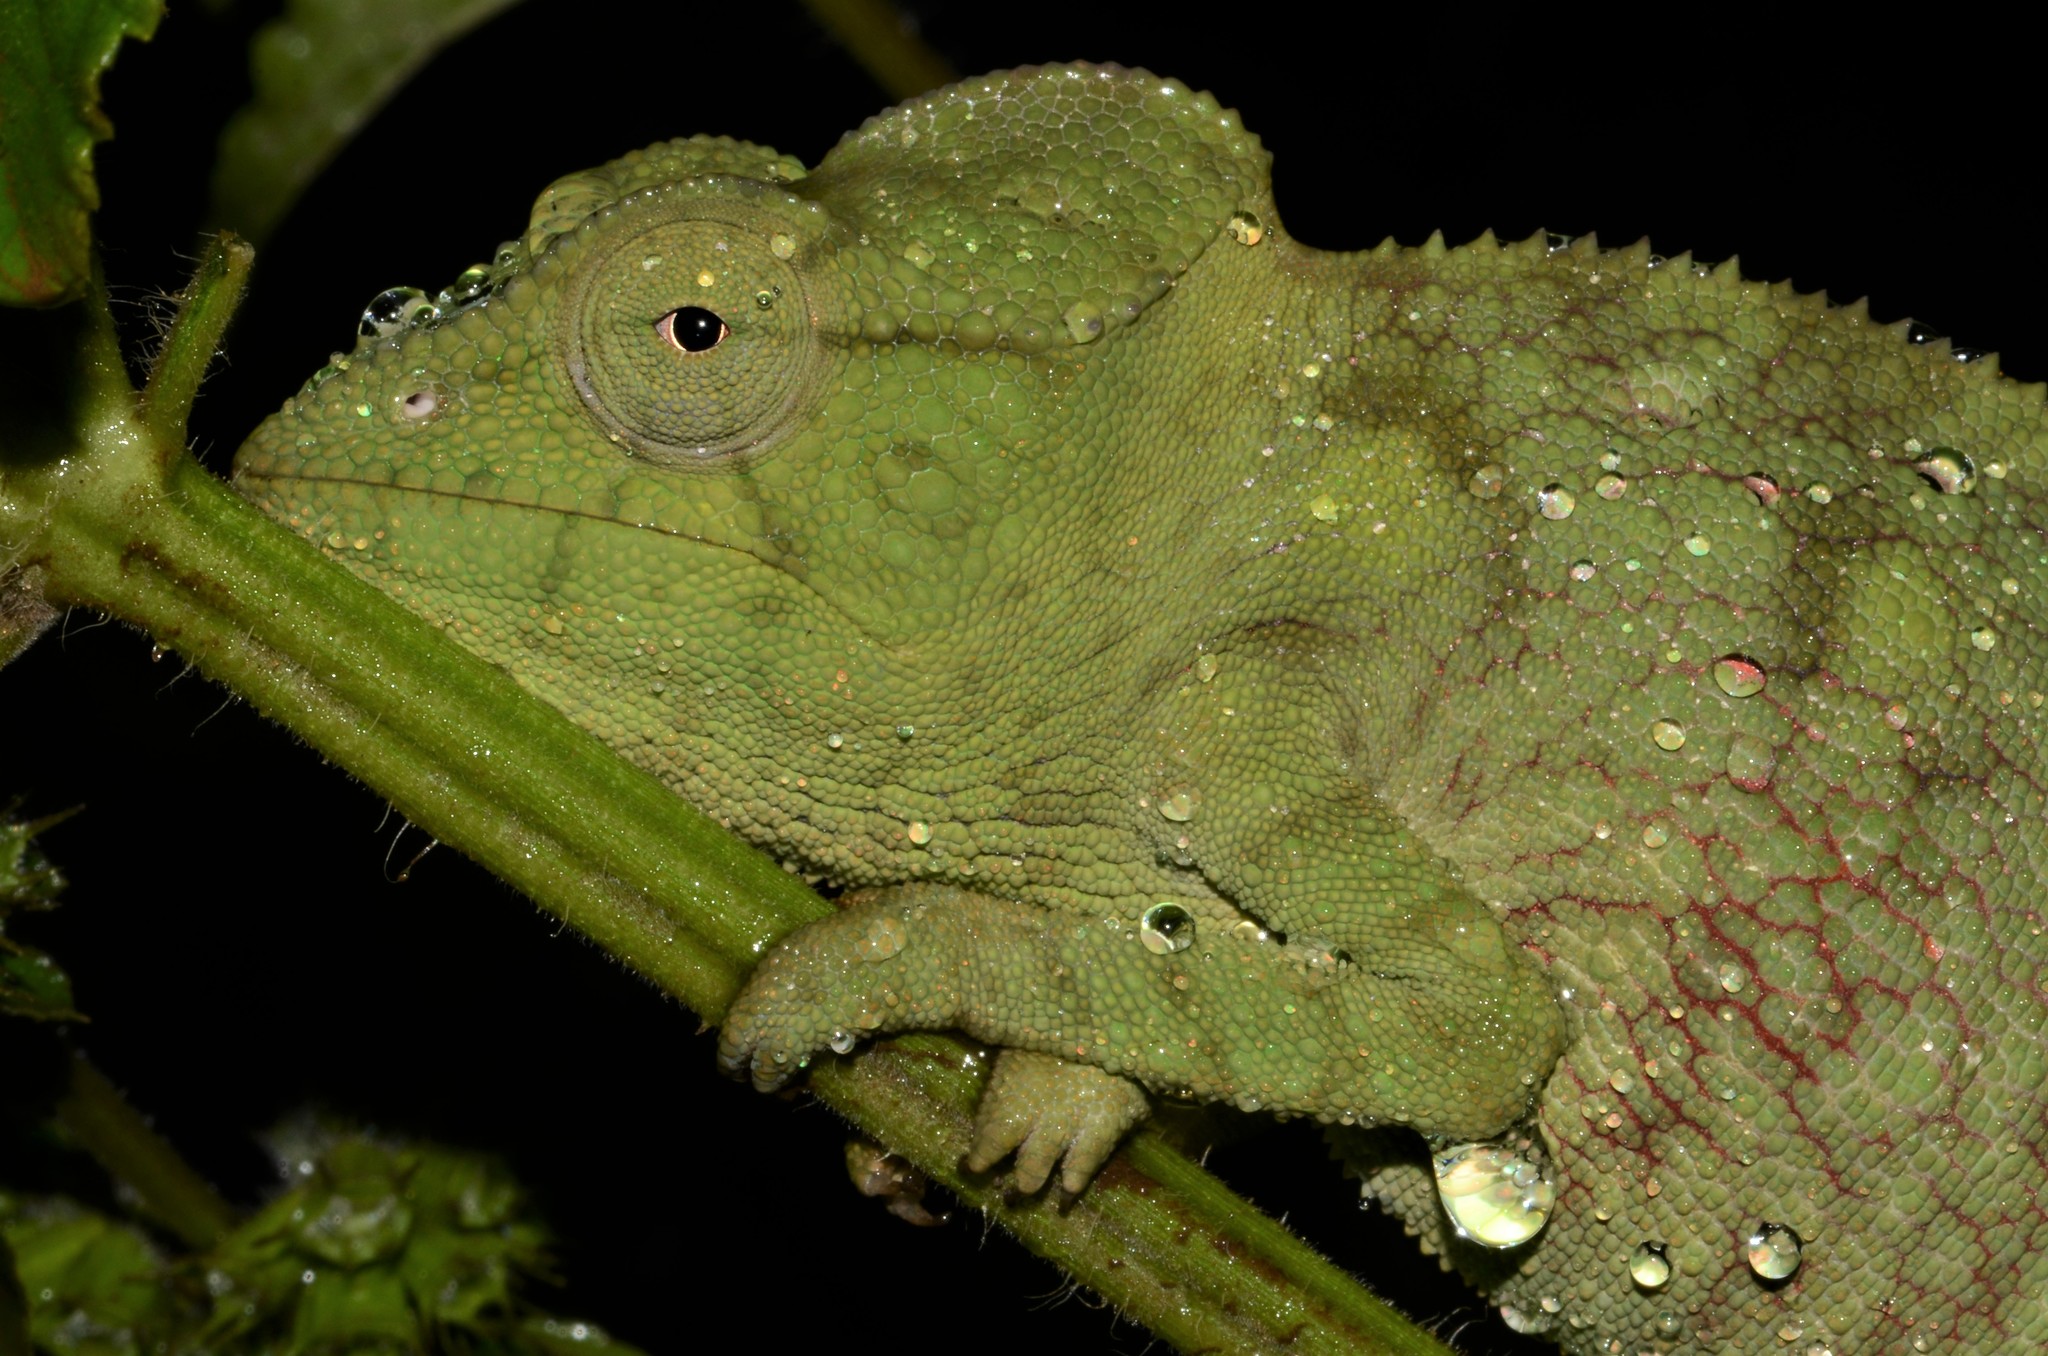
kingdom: Animalia
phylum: Chordata
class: Squamata
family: Chamaeleonidae
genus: Furcifer
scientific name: Furcifer oustaleti
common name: Oustalet's chameleon
